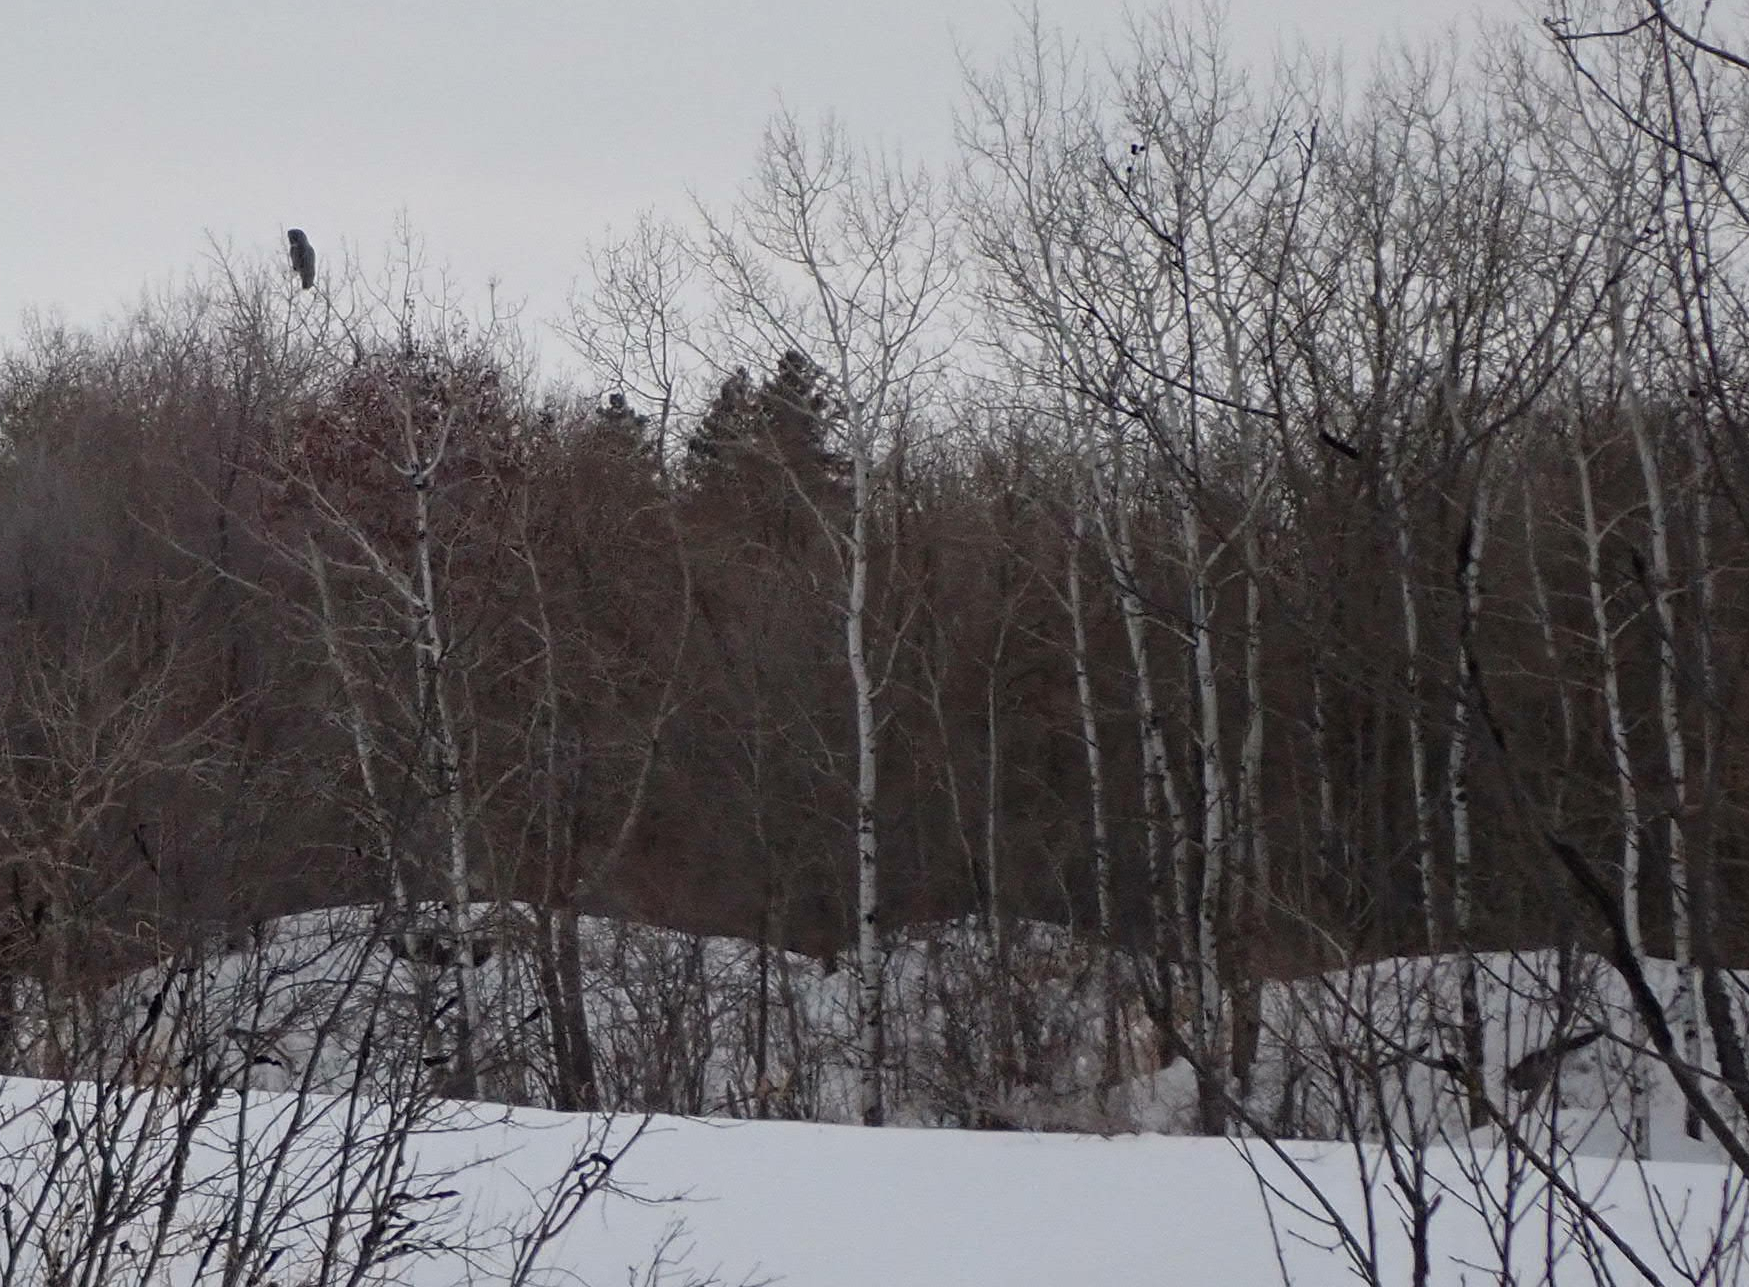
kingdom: Plantae
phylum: Tracheophyta
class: Magnoliopsida
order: Malpighiales
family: Salicaceae
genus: Populus
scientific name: Populus tremuloides
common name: Quaking aspen
